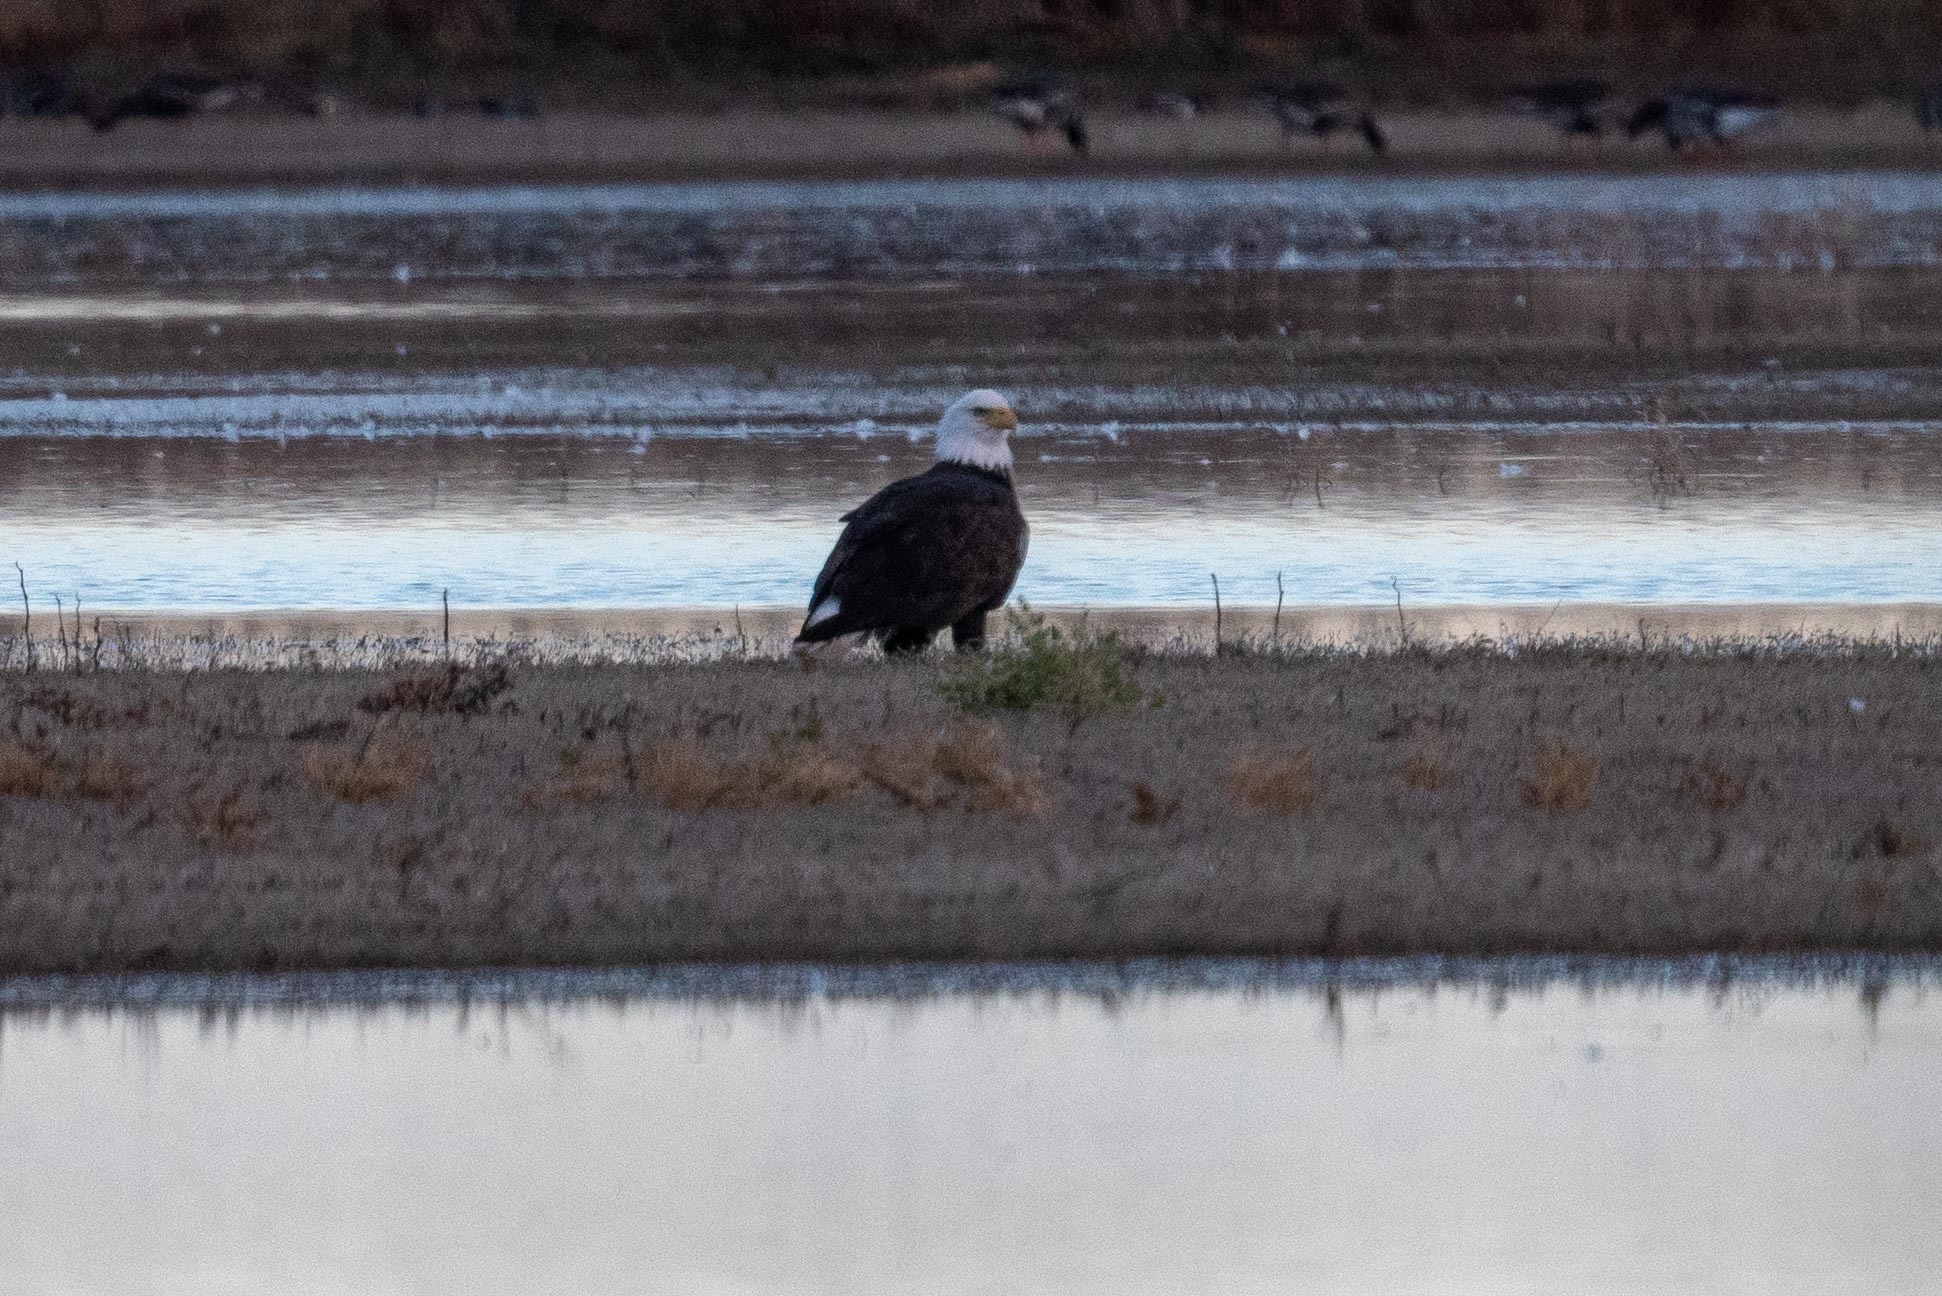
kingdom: Animalia
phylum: Chordata
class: Aves
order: Accipitriformes
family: Accipitridae
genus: Haliaeetus
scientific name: Haliaeetus leucocephalus
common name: Bald eagle
